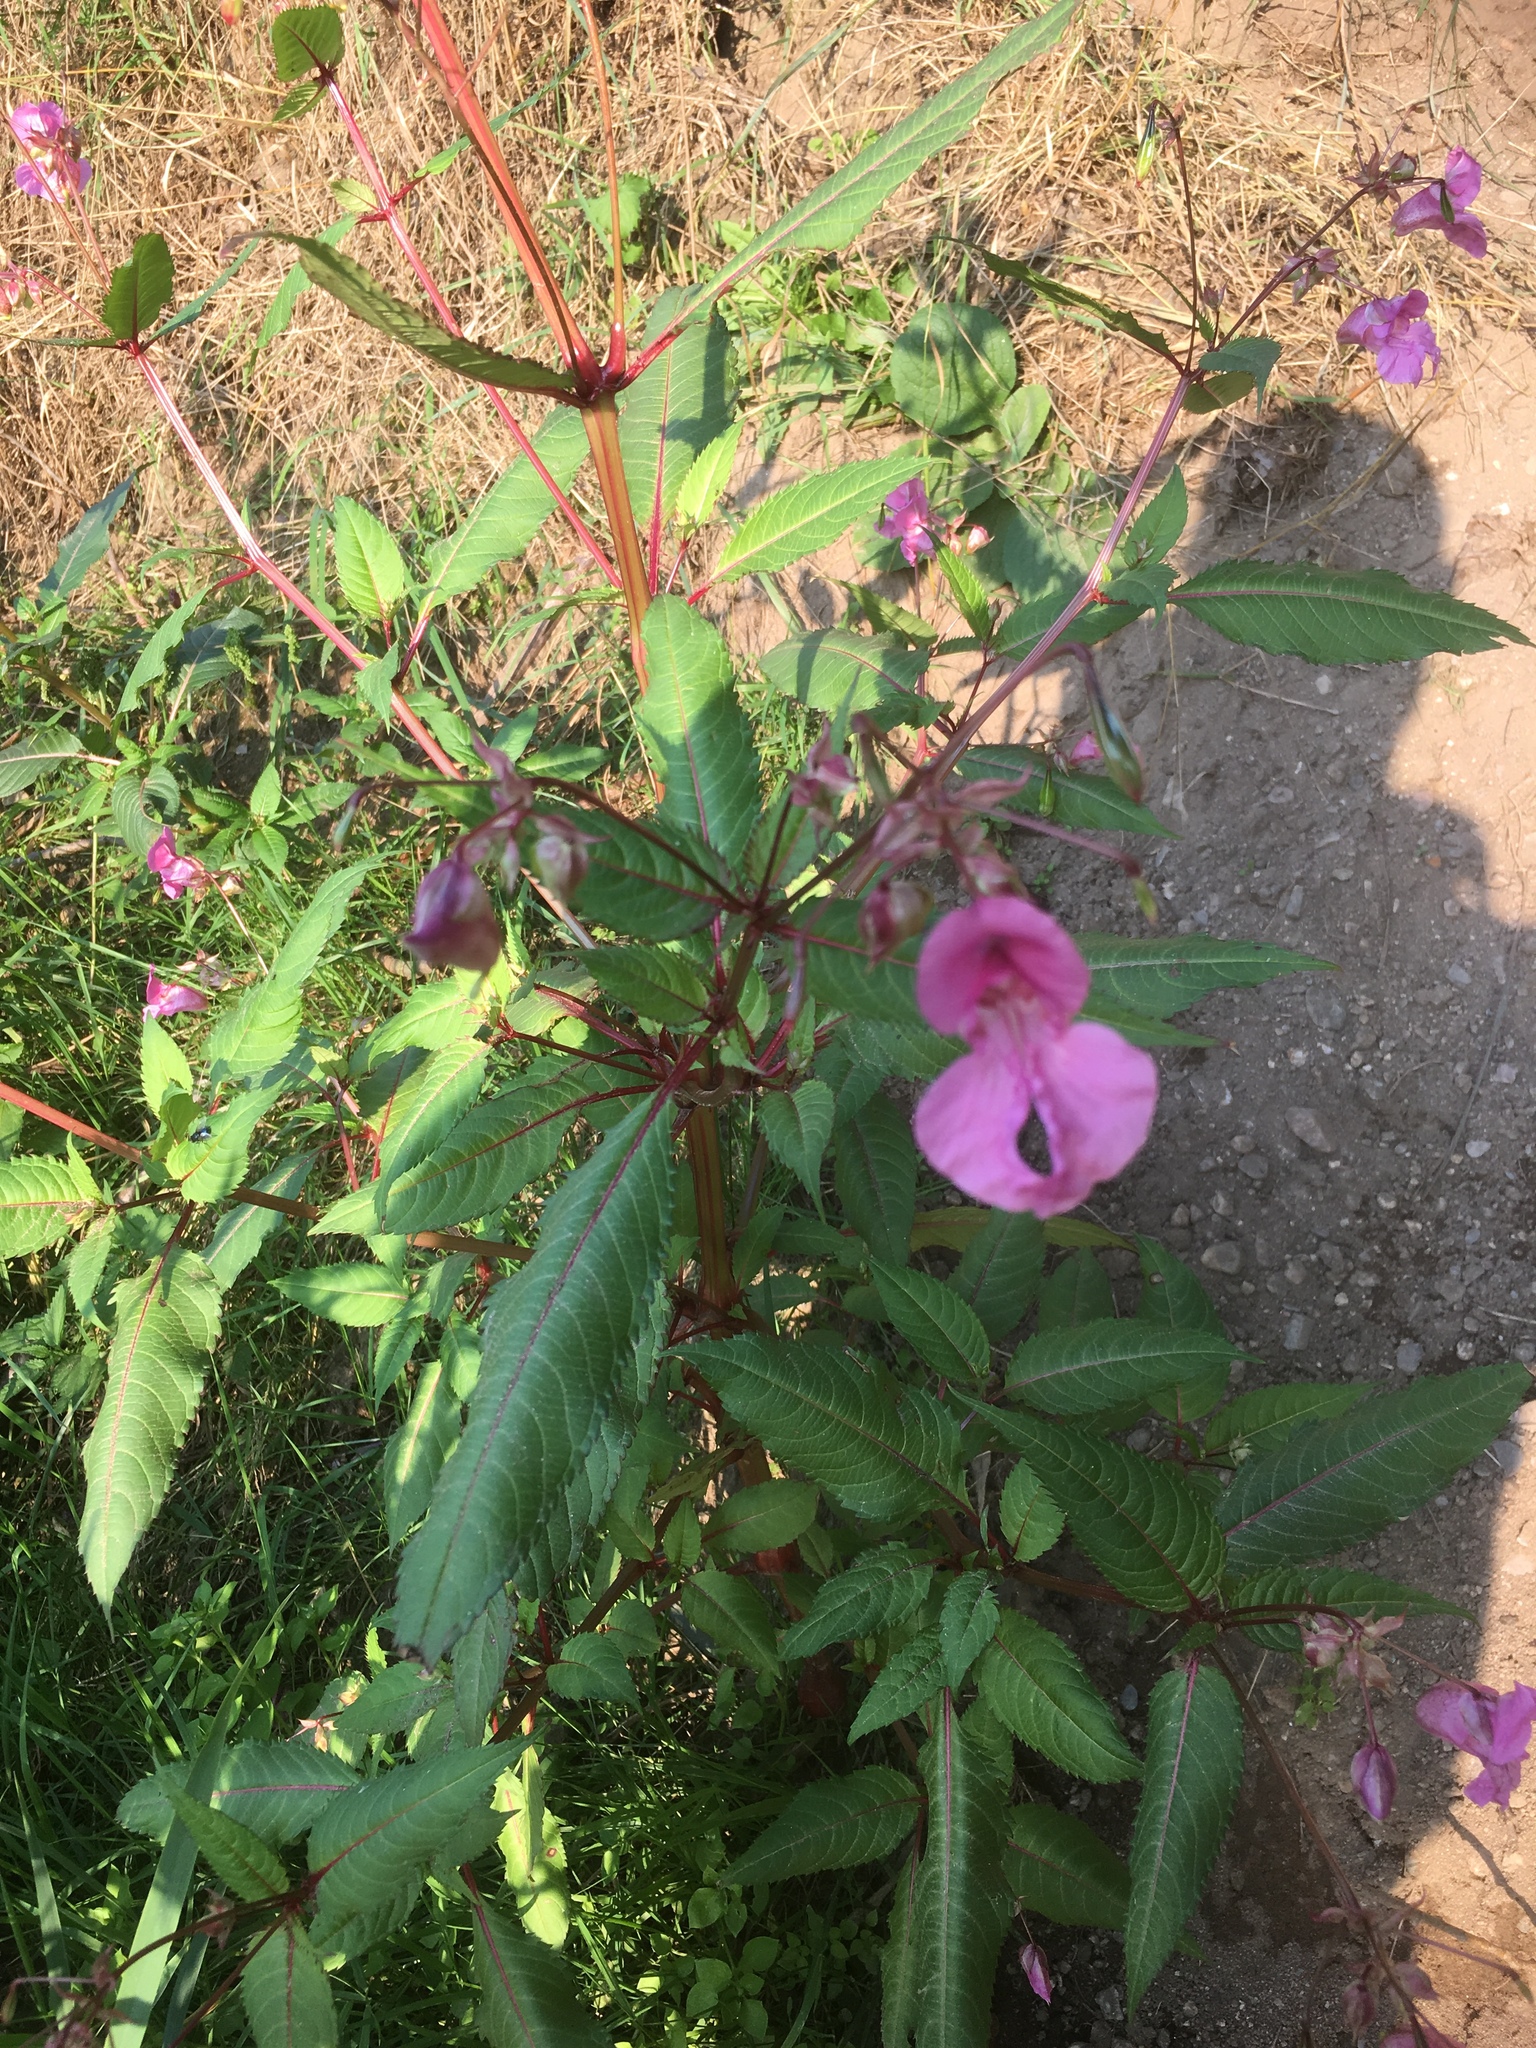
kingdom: Plantae
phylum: Tracheophyta
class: Magnoliopsida
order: Ericales
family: Balsaminaceae
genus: Impatiens
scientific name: Impatiens glandulifera
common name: Himalayan balsam
